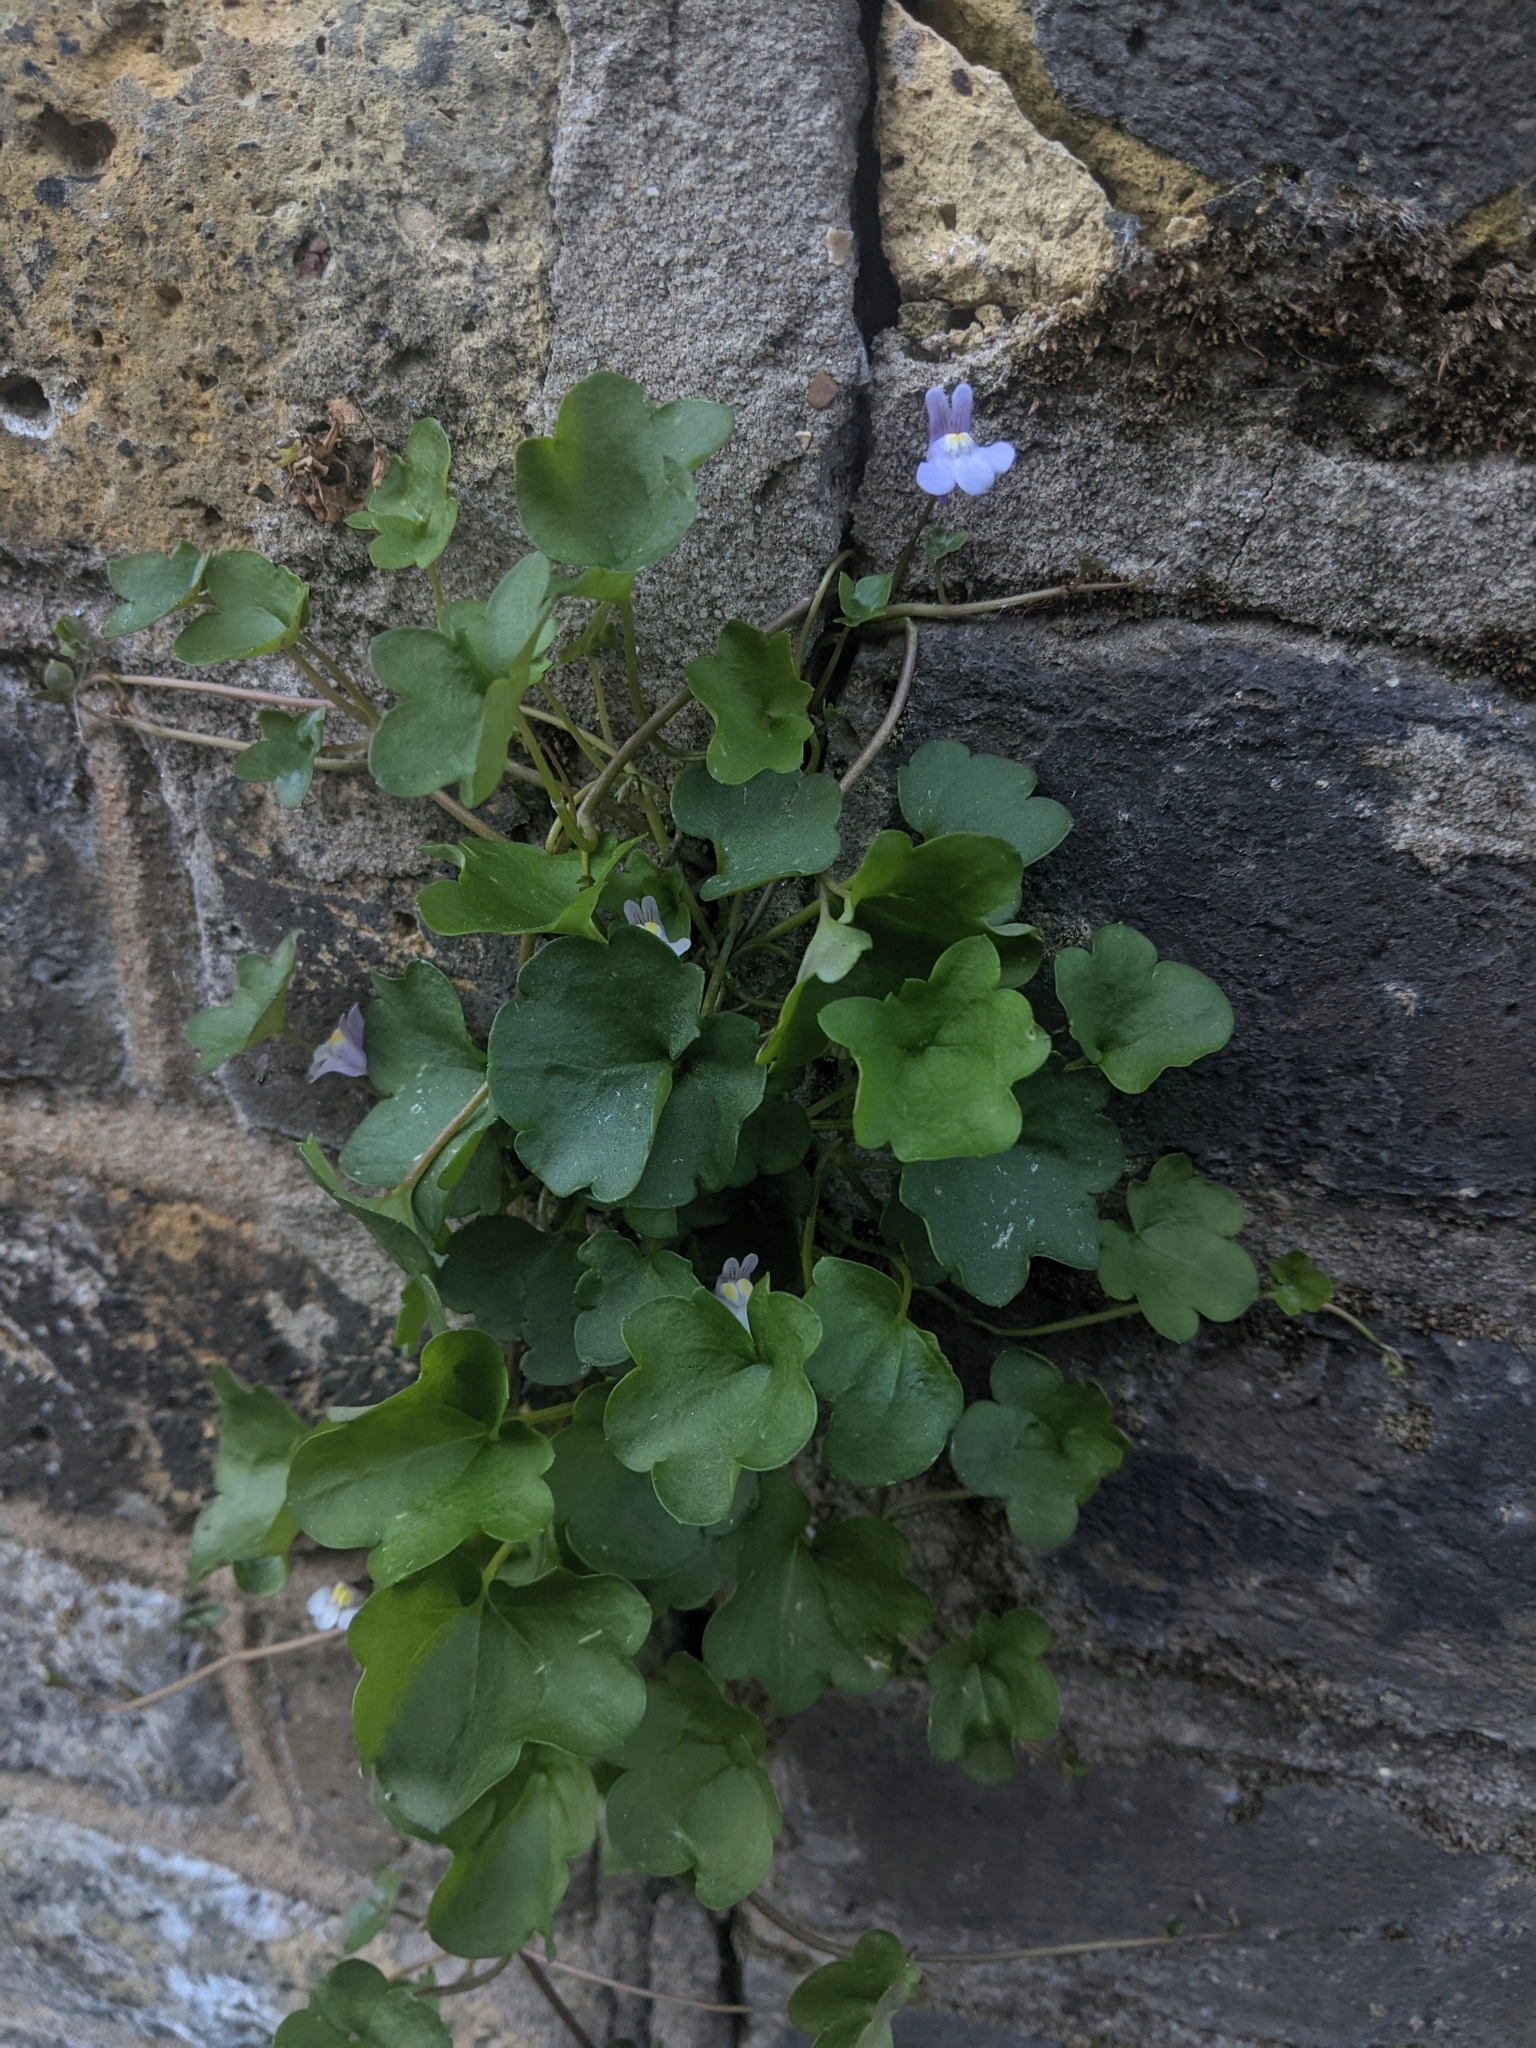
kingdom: Plantae
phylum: Tracheophyta
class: Magnoliopsida
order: Lamiales
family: Plantaginaceae
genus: Cymbalaria
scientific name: Cymbalaria muralis
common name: Ivy-leaved toadflax
